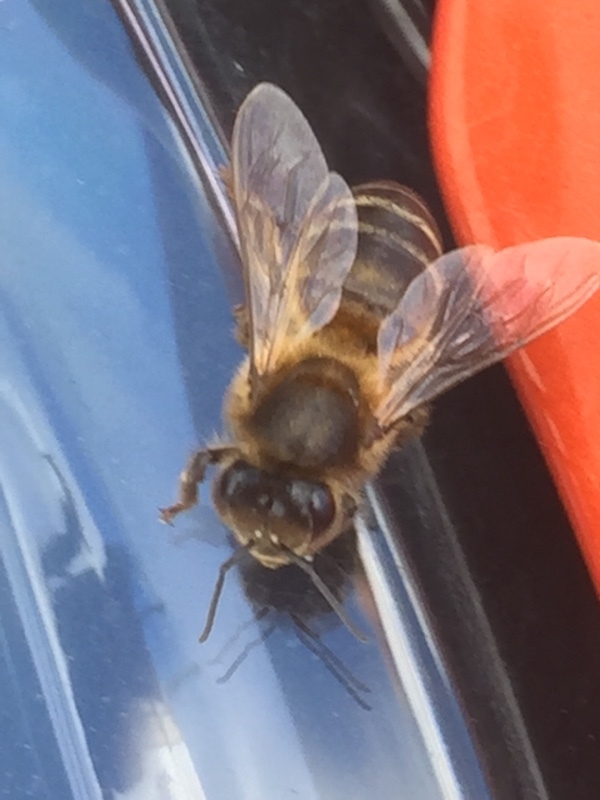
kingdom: Animalia
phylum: Arthropoda
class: Insecta
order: Hymenoptera
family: Apidae
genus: Apis
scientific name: Apis mellifera
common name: Honey bee
